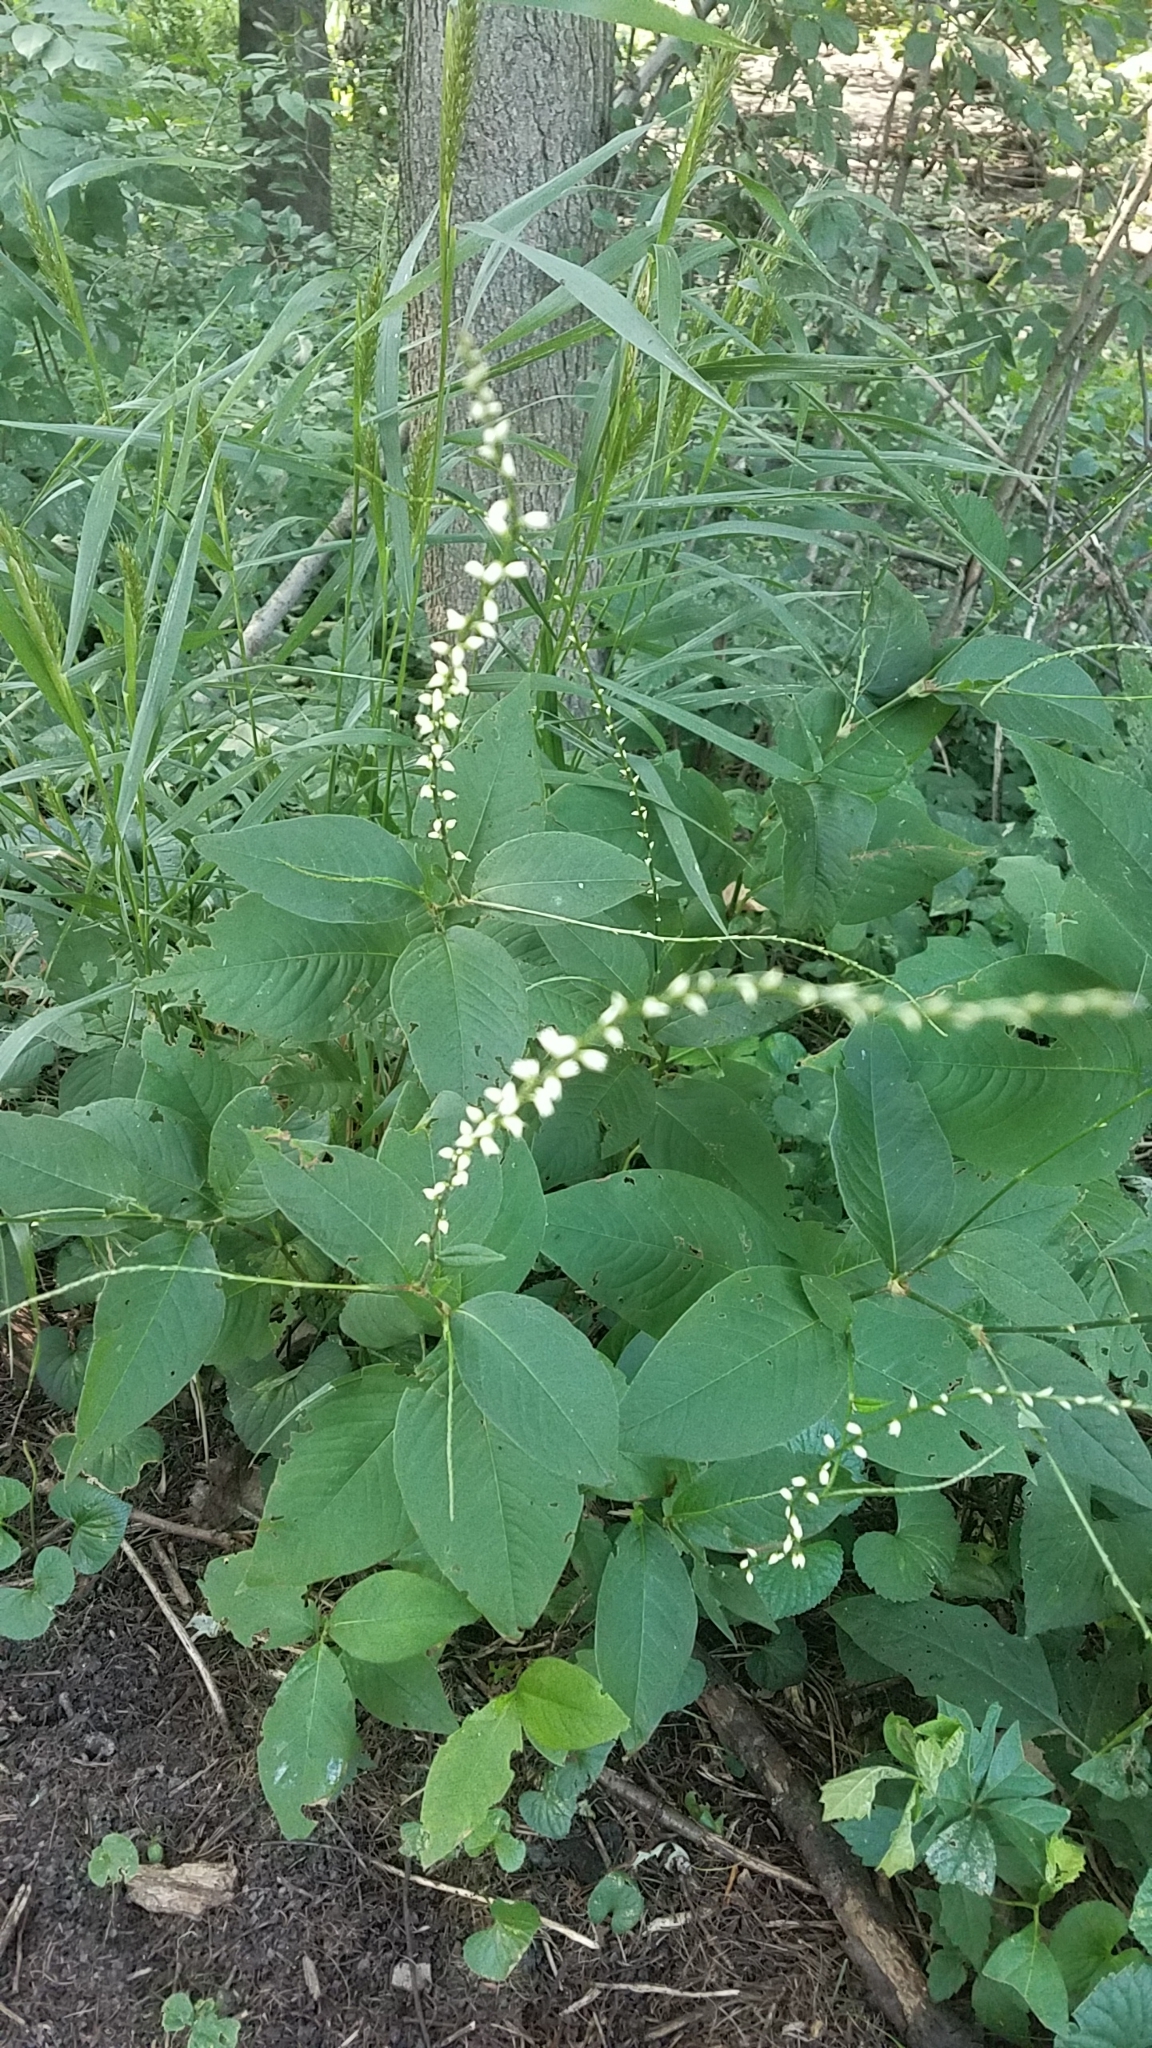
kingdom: Plantae
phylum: Tracheophyta
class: Magnoliopsida
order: Caryophyllales
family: Polygonaceae
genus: Persicaria
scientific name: Persicaria virginiana
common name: Jumpseed
